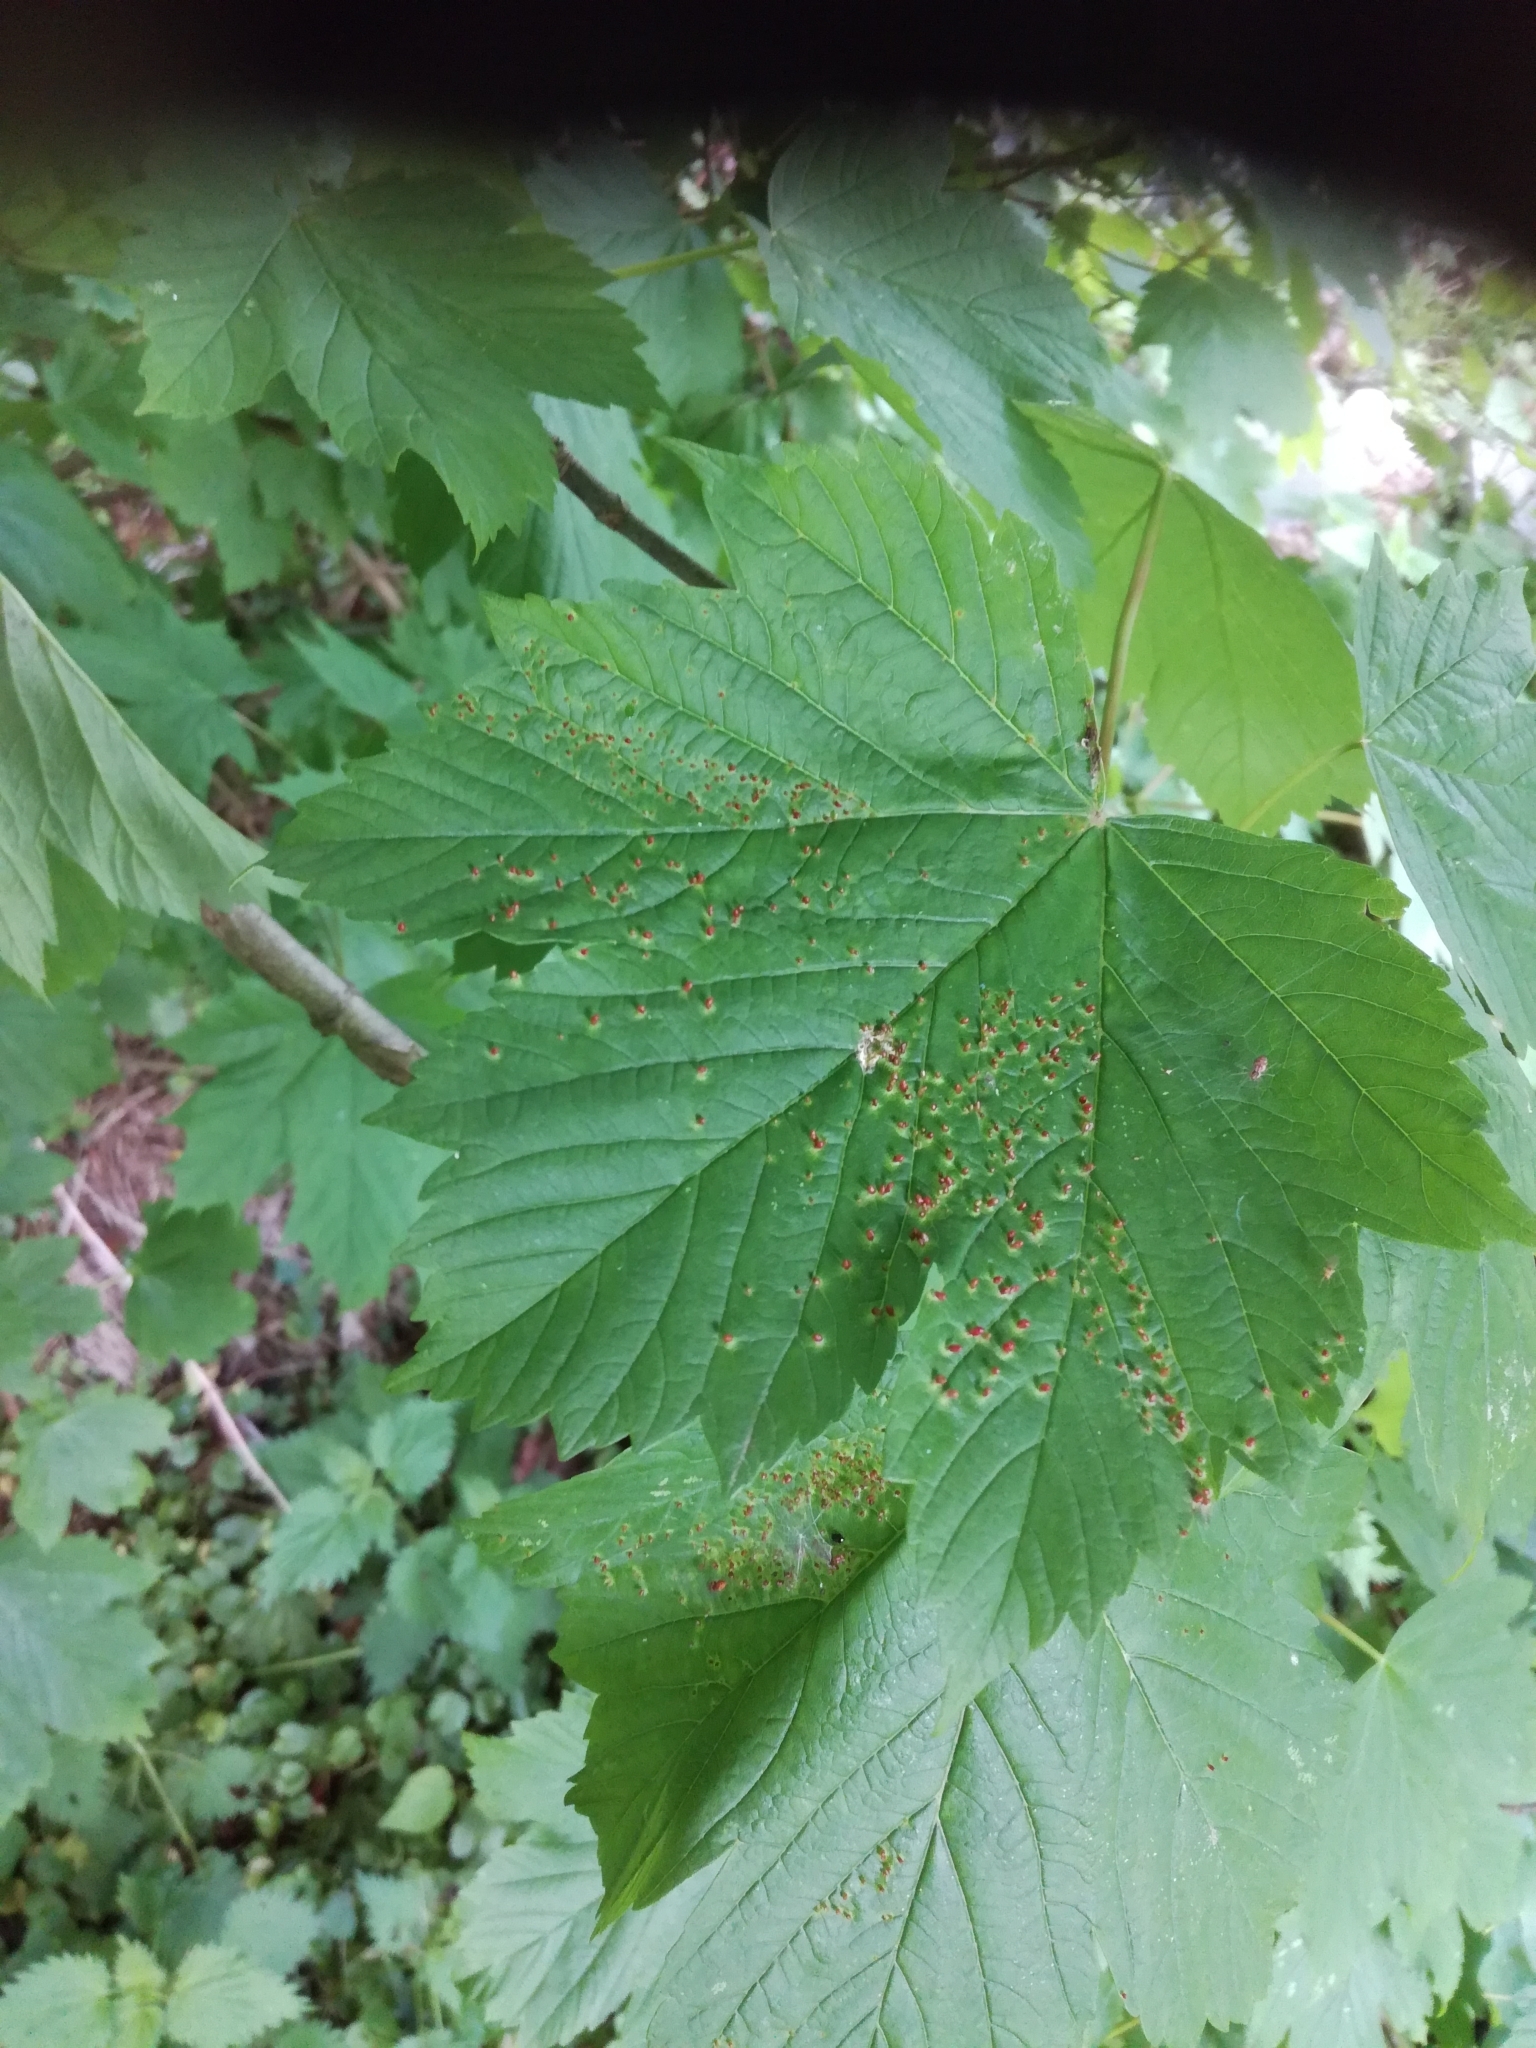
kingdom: Animalia
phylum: Arthropoda
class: Arachnida
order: Trombidiformes
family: Eriophyidae
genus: Aceria
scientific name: Aceria cephaloneus
